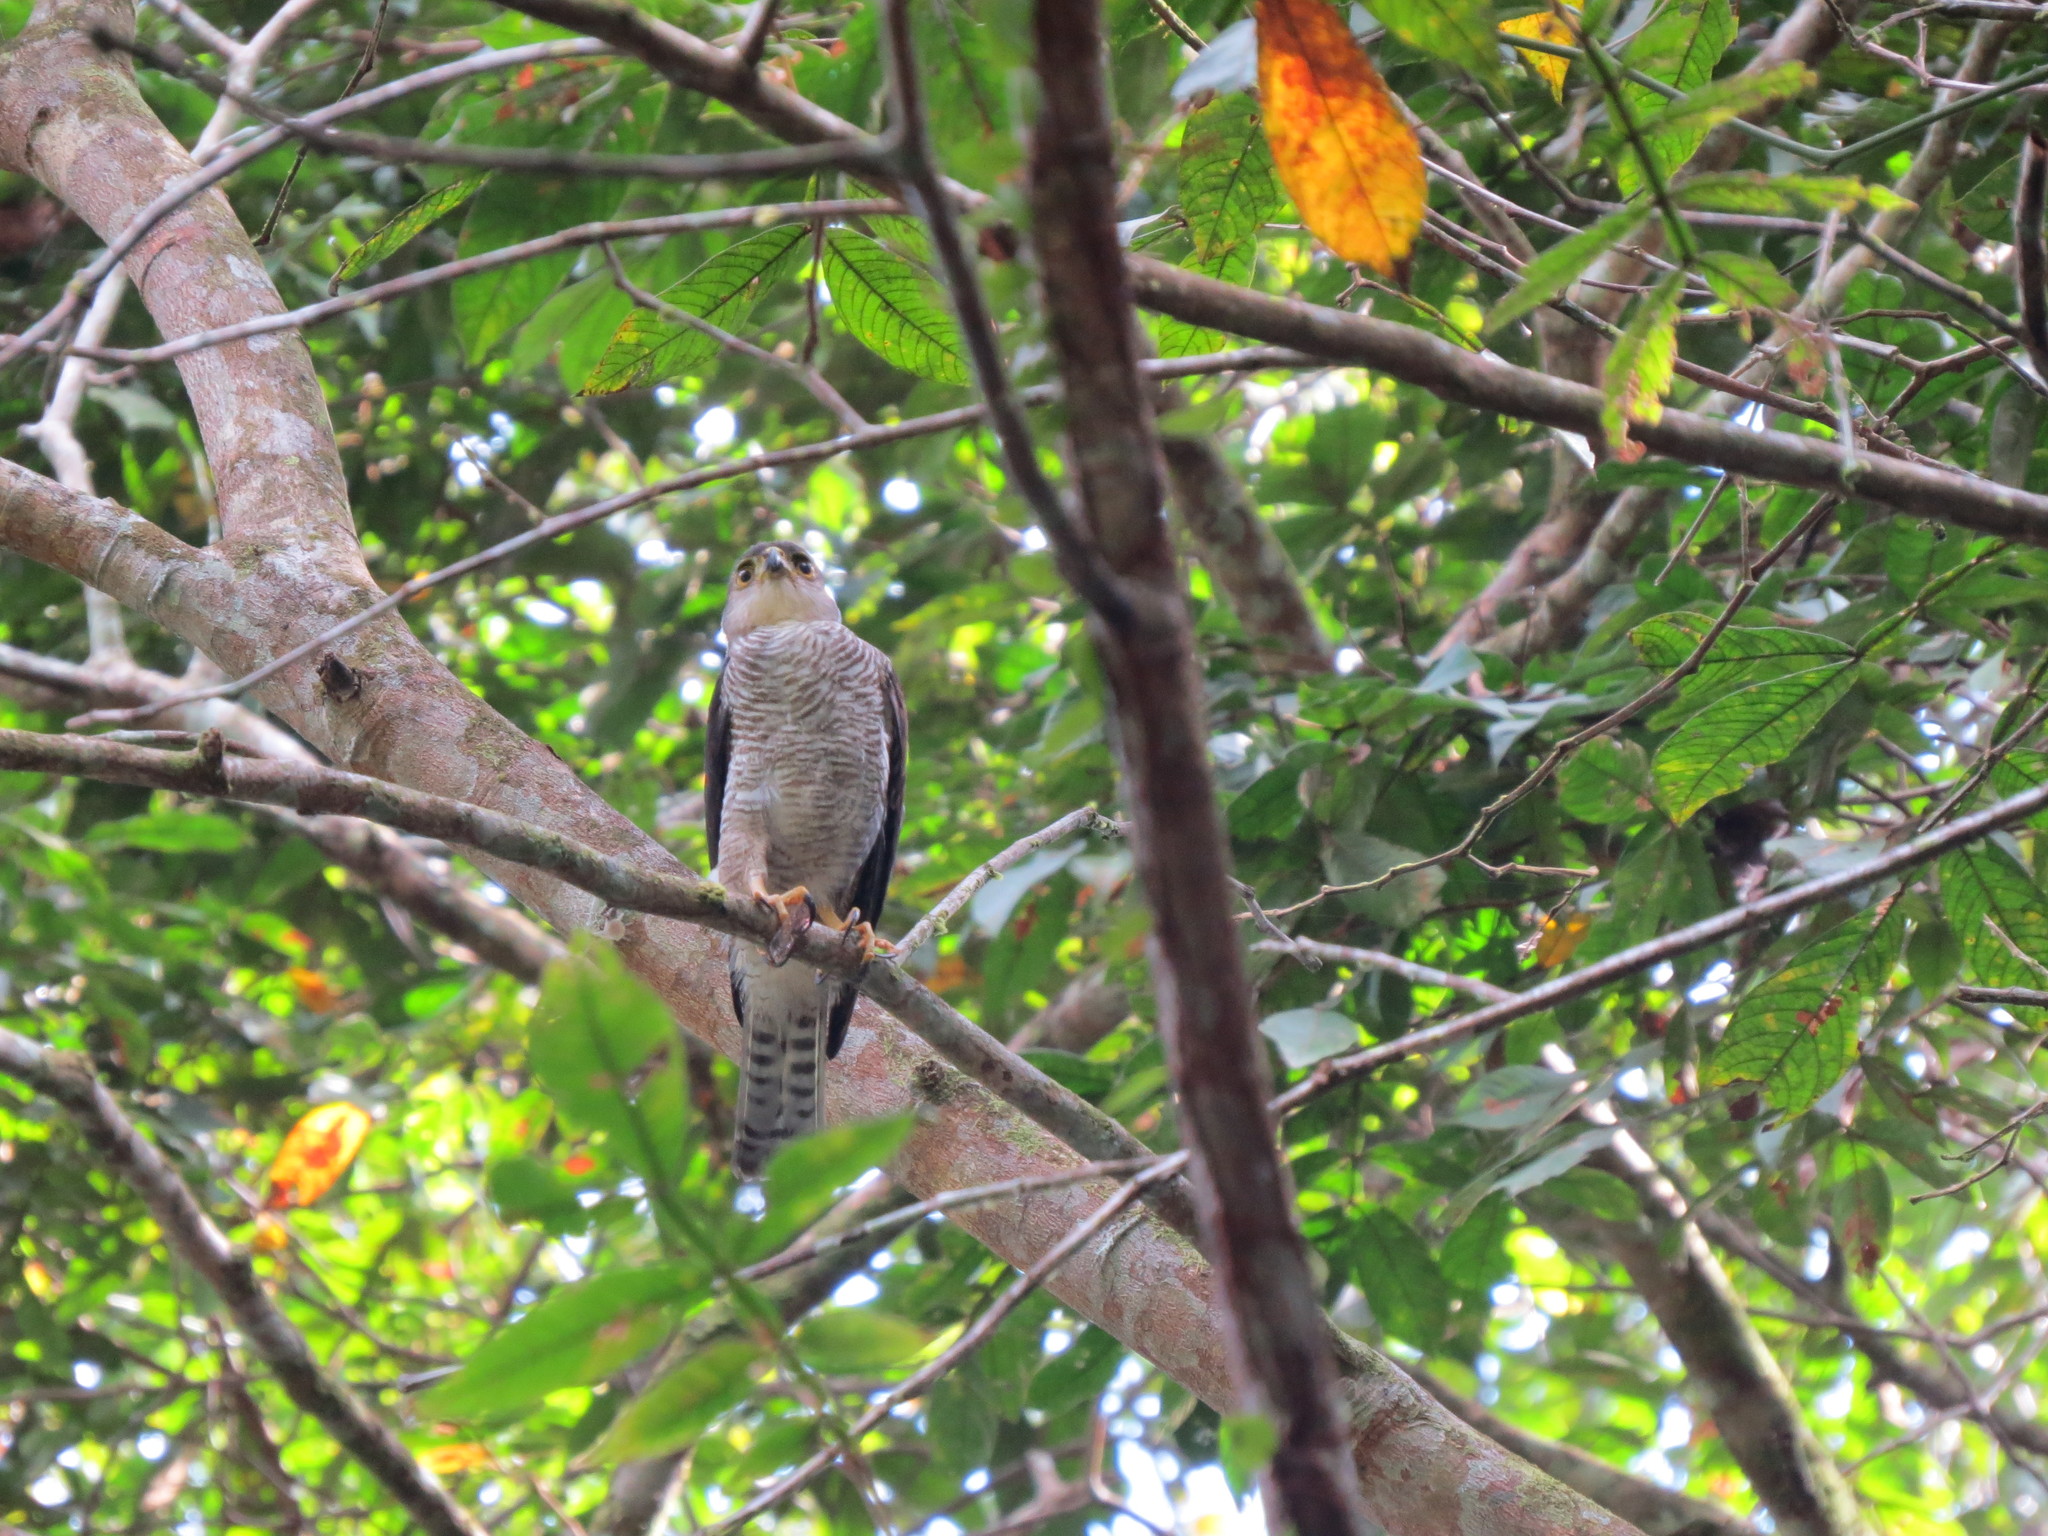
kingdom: Animalia
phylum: Chordata
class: Aves
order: Accipitriformes
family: Accipitridae
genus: Accipiter
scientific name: Accipiter superciliosus
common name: Tiny hawk
